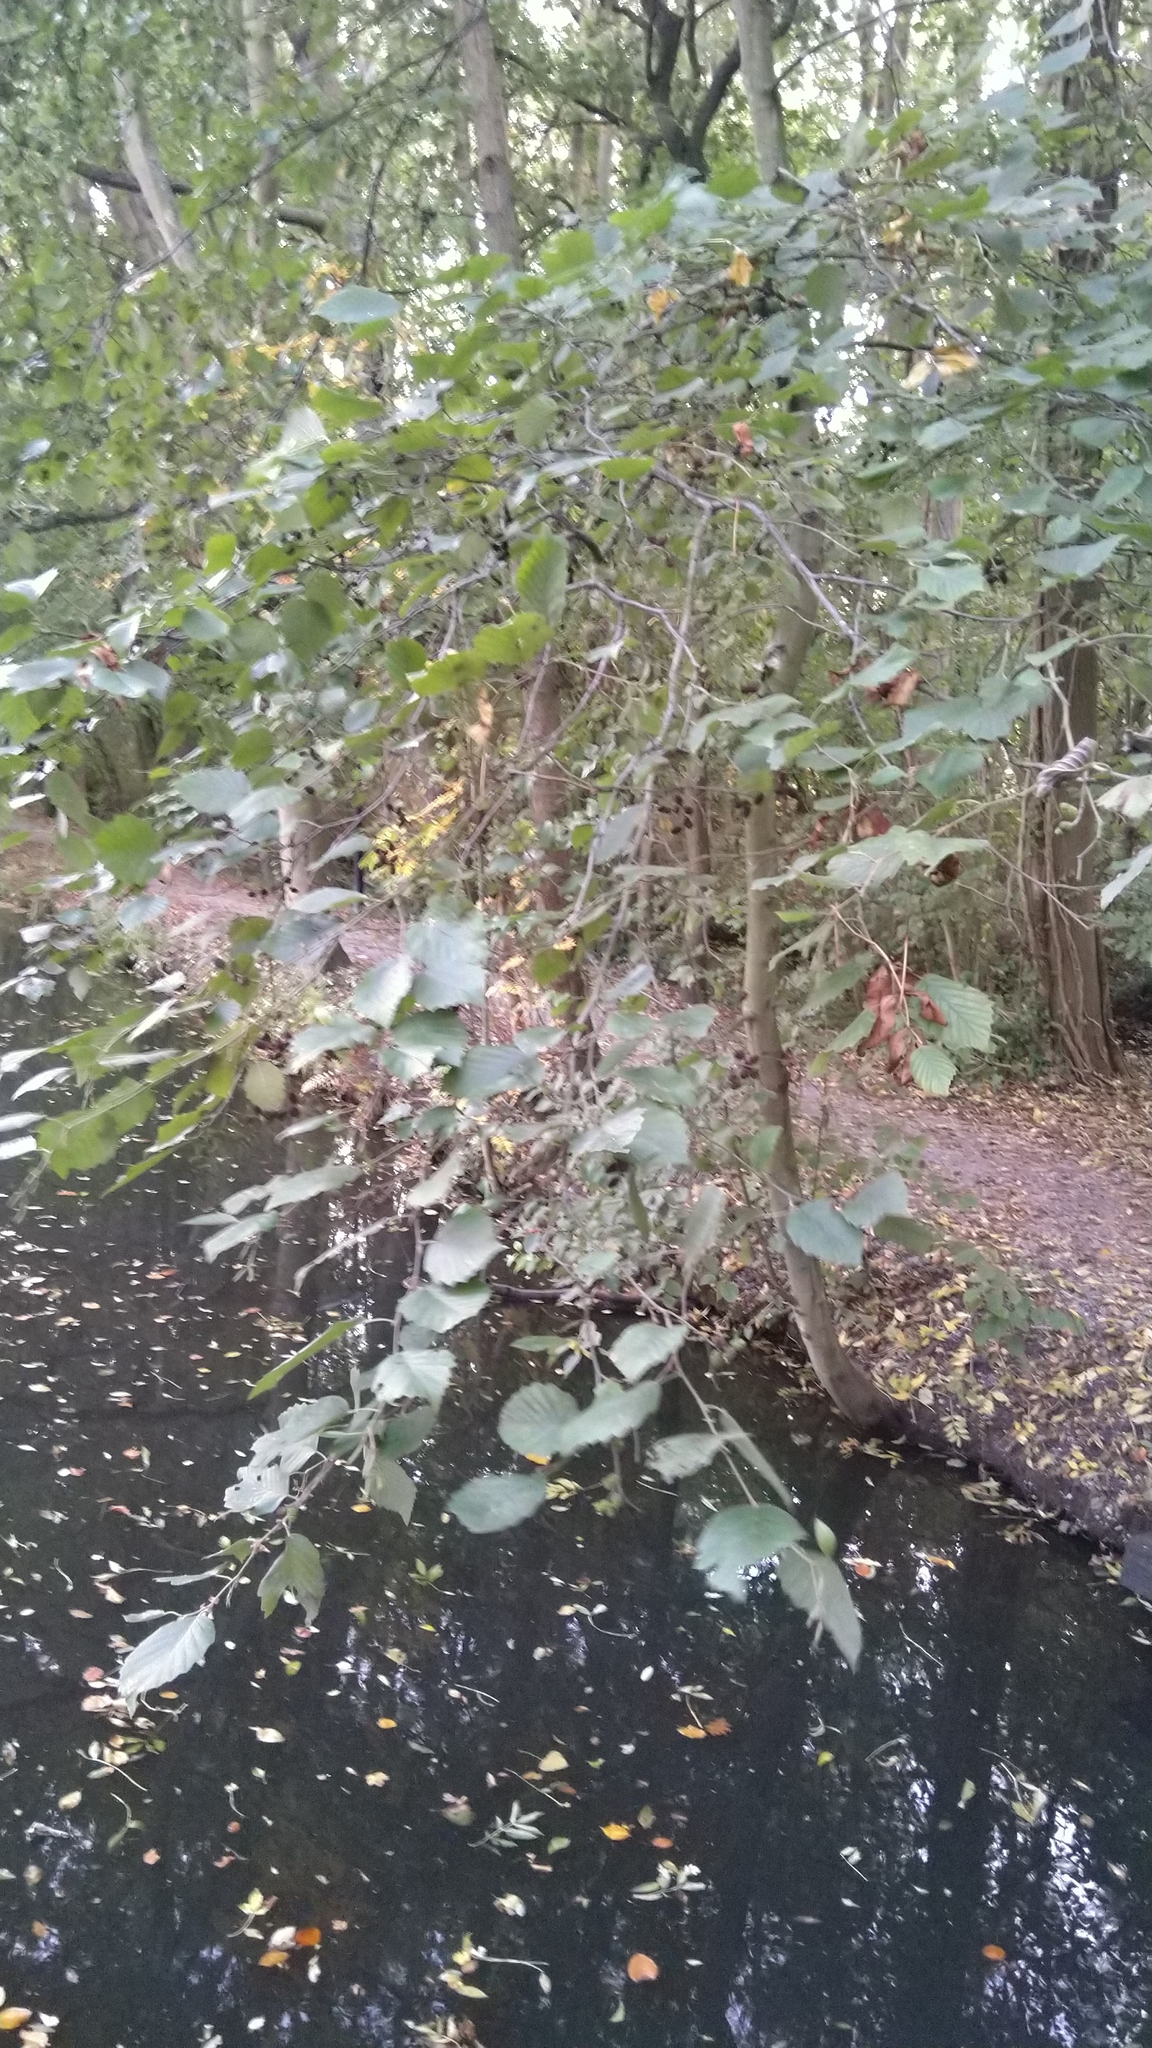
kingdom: Plantae
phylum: Tracheophyta
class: Magnoliopsida
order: Fagales
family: Betulaceae
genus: Alnus
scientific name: Alnus incana
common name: Grey alder
